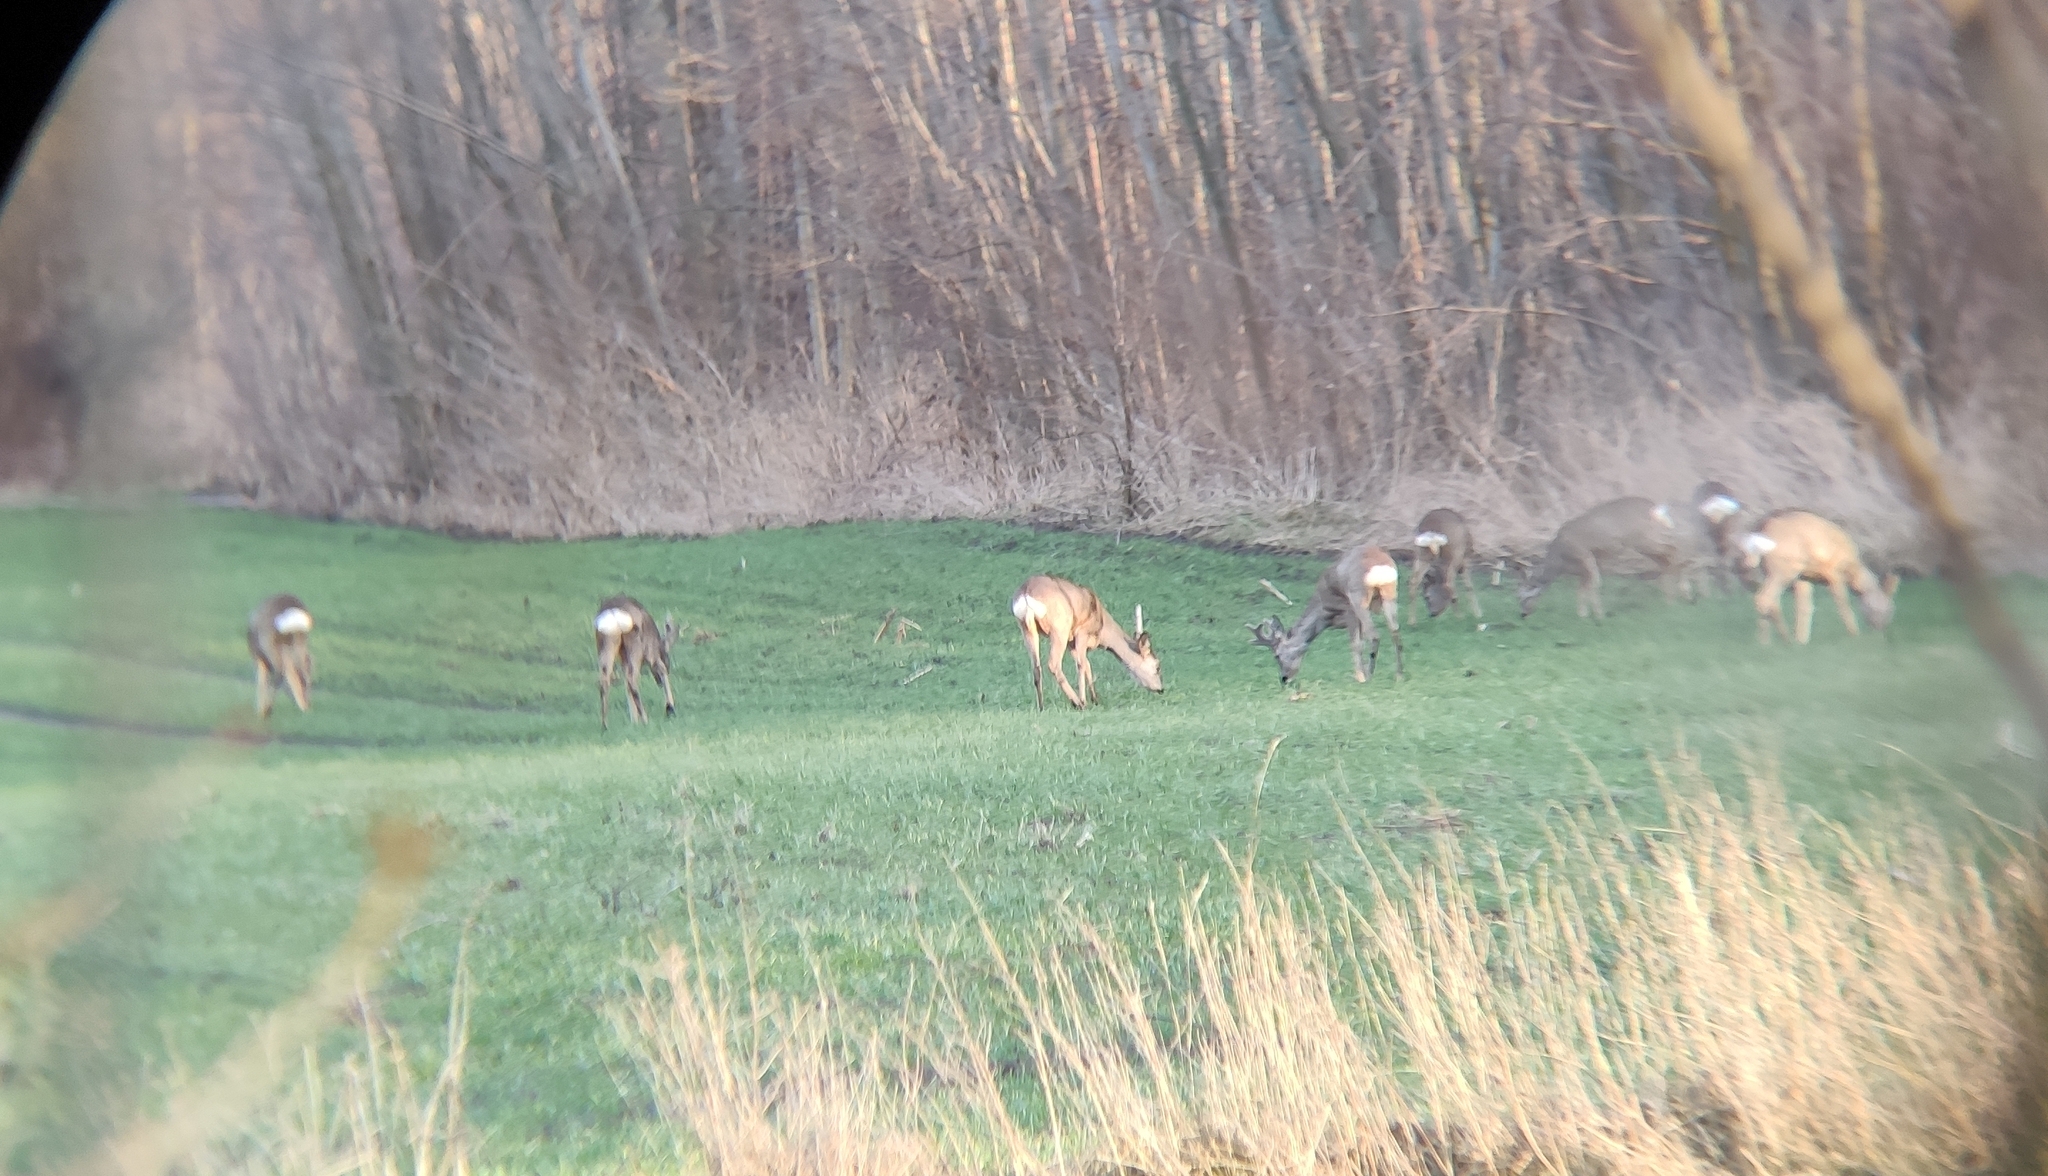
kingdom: Animalia
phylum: Chordata
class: Mammalia
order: Artiodactyla
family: Cervidae
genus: Capreolus
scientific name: Capreolus capreolus
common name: Western roe deer
